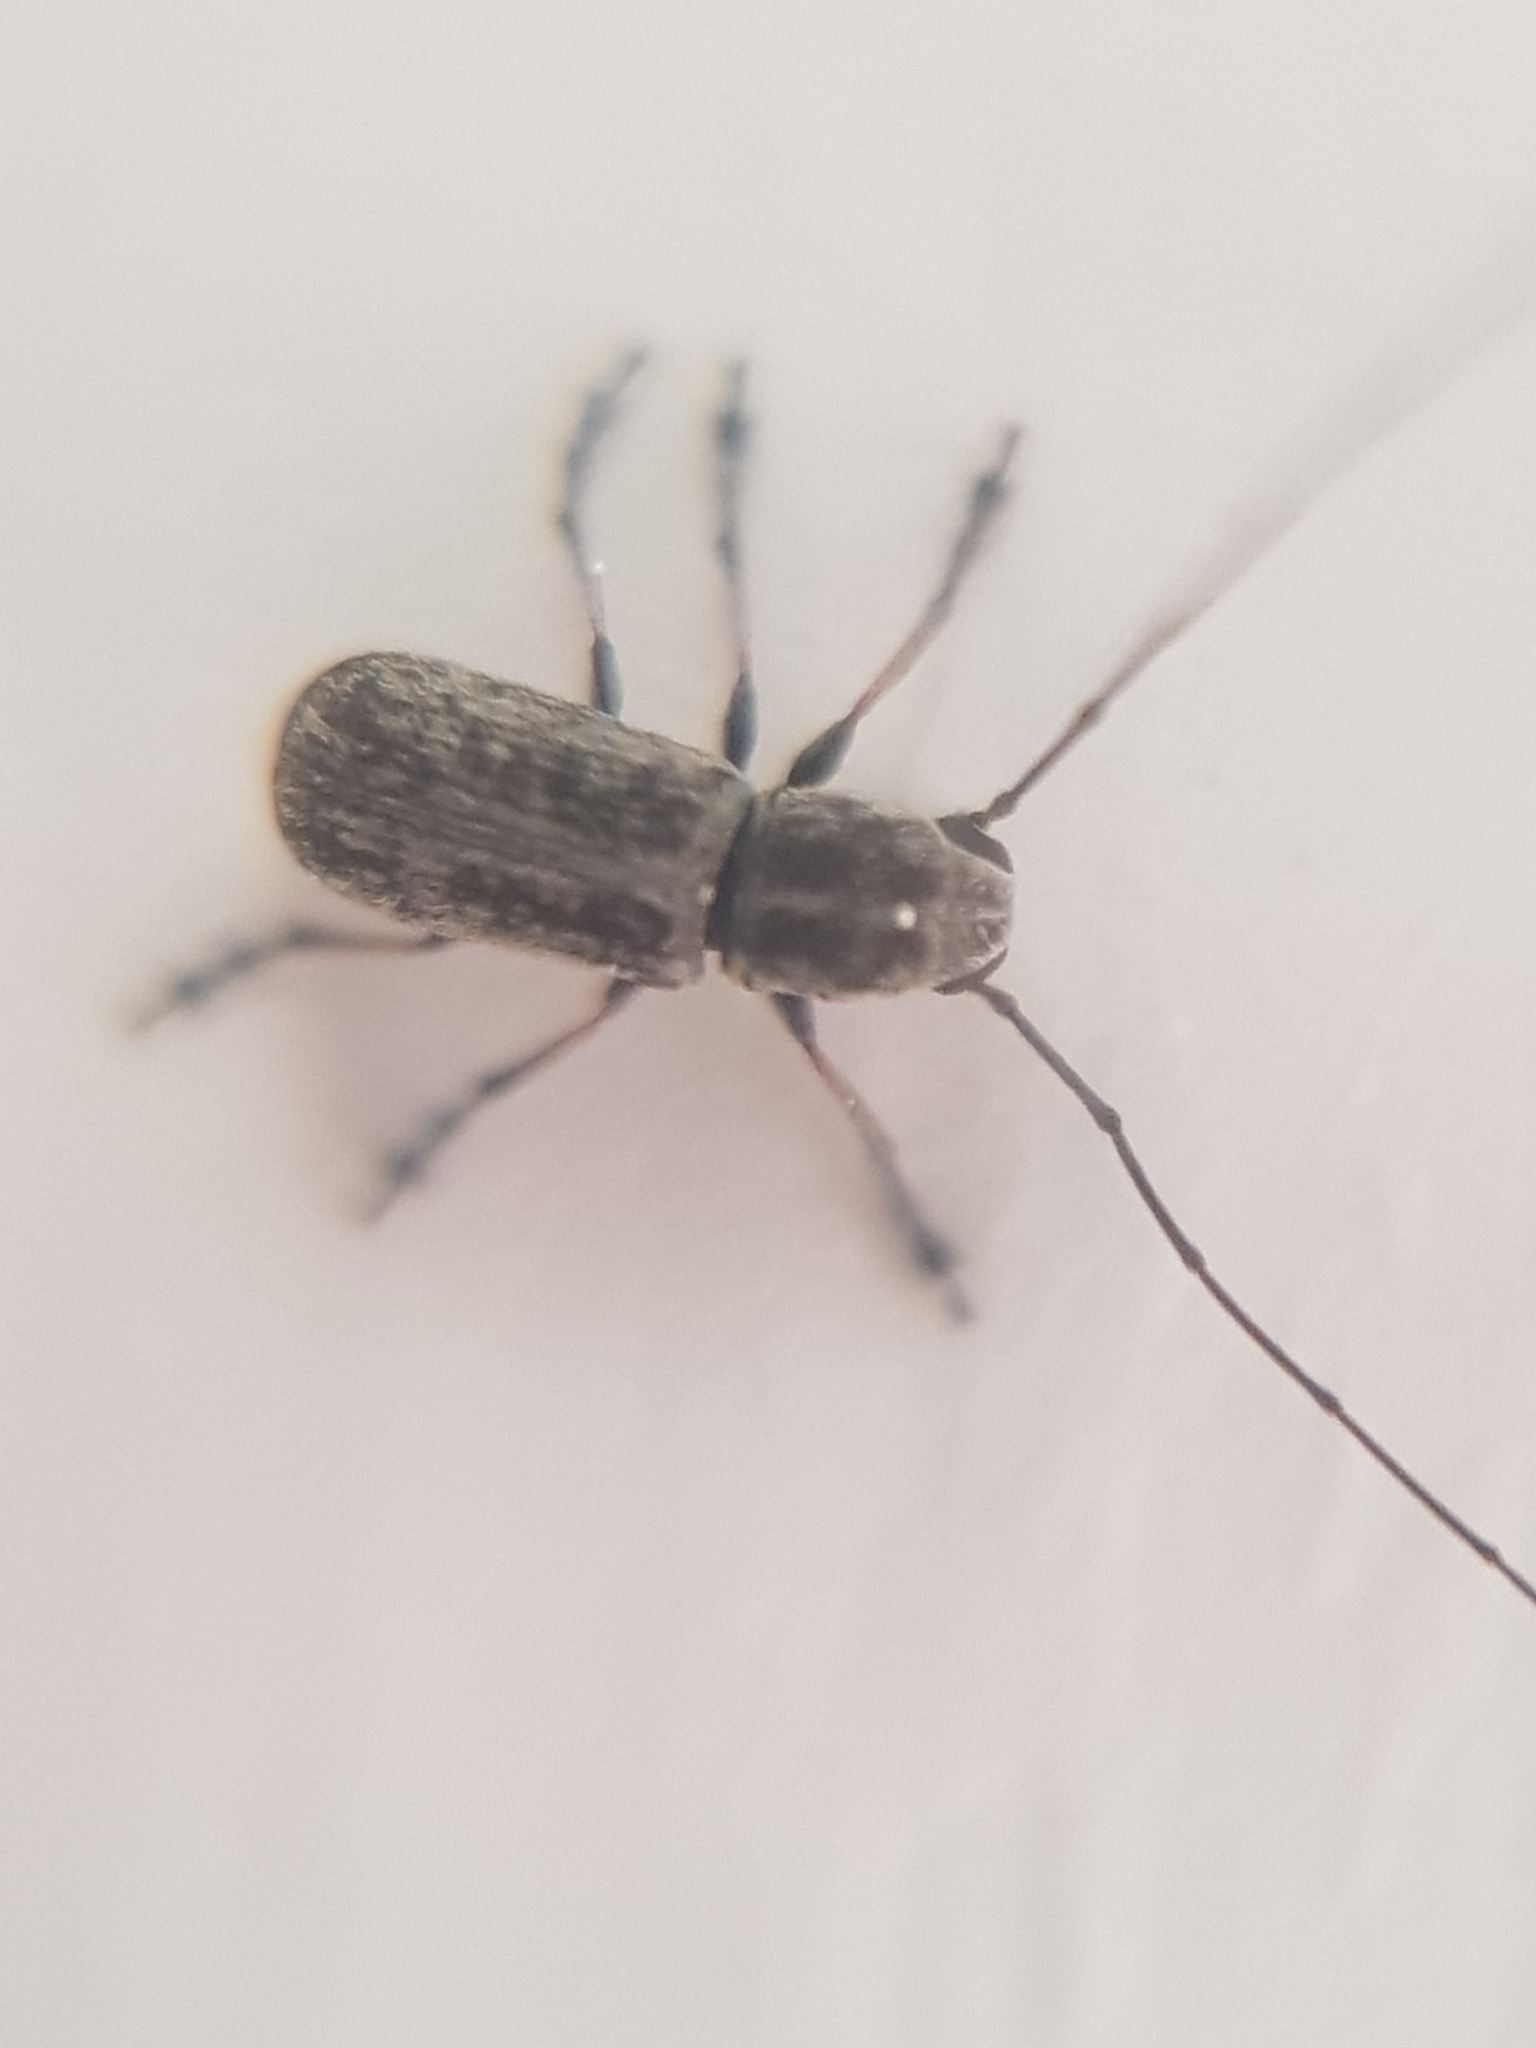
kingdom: Animalia
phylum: Arthropoda
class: Insecta
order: Coleoptera
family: Anthribidae
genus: Euciodes
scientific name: Euciodes suturalis
